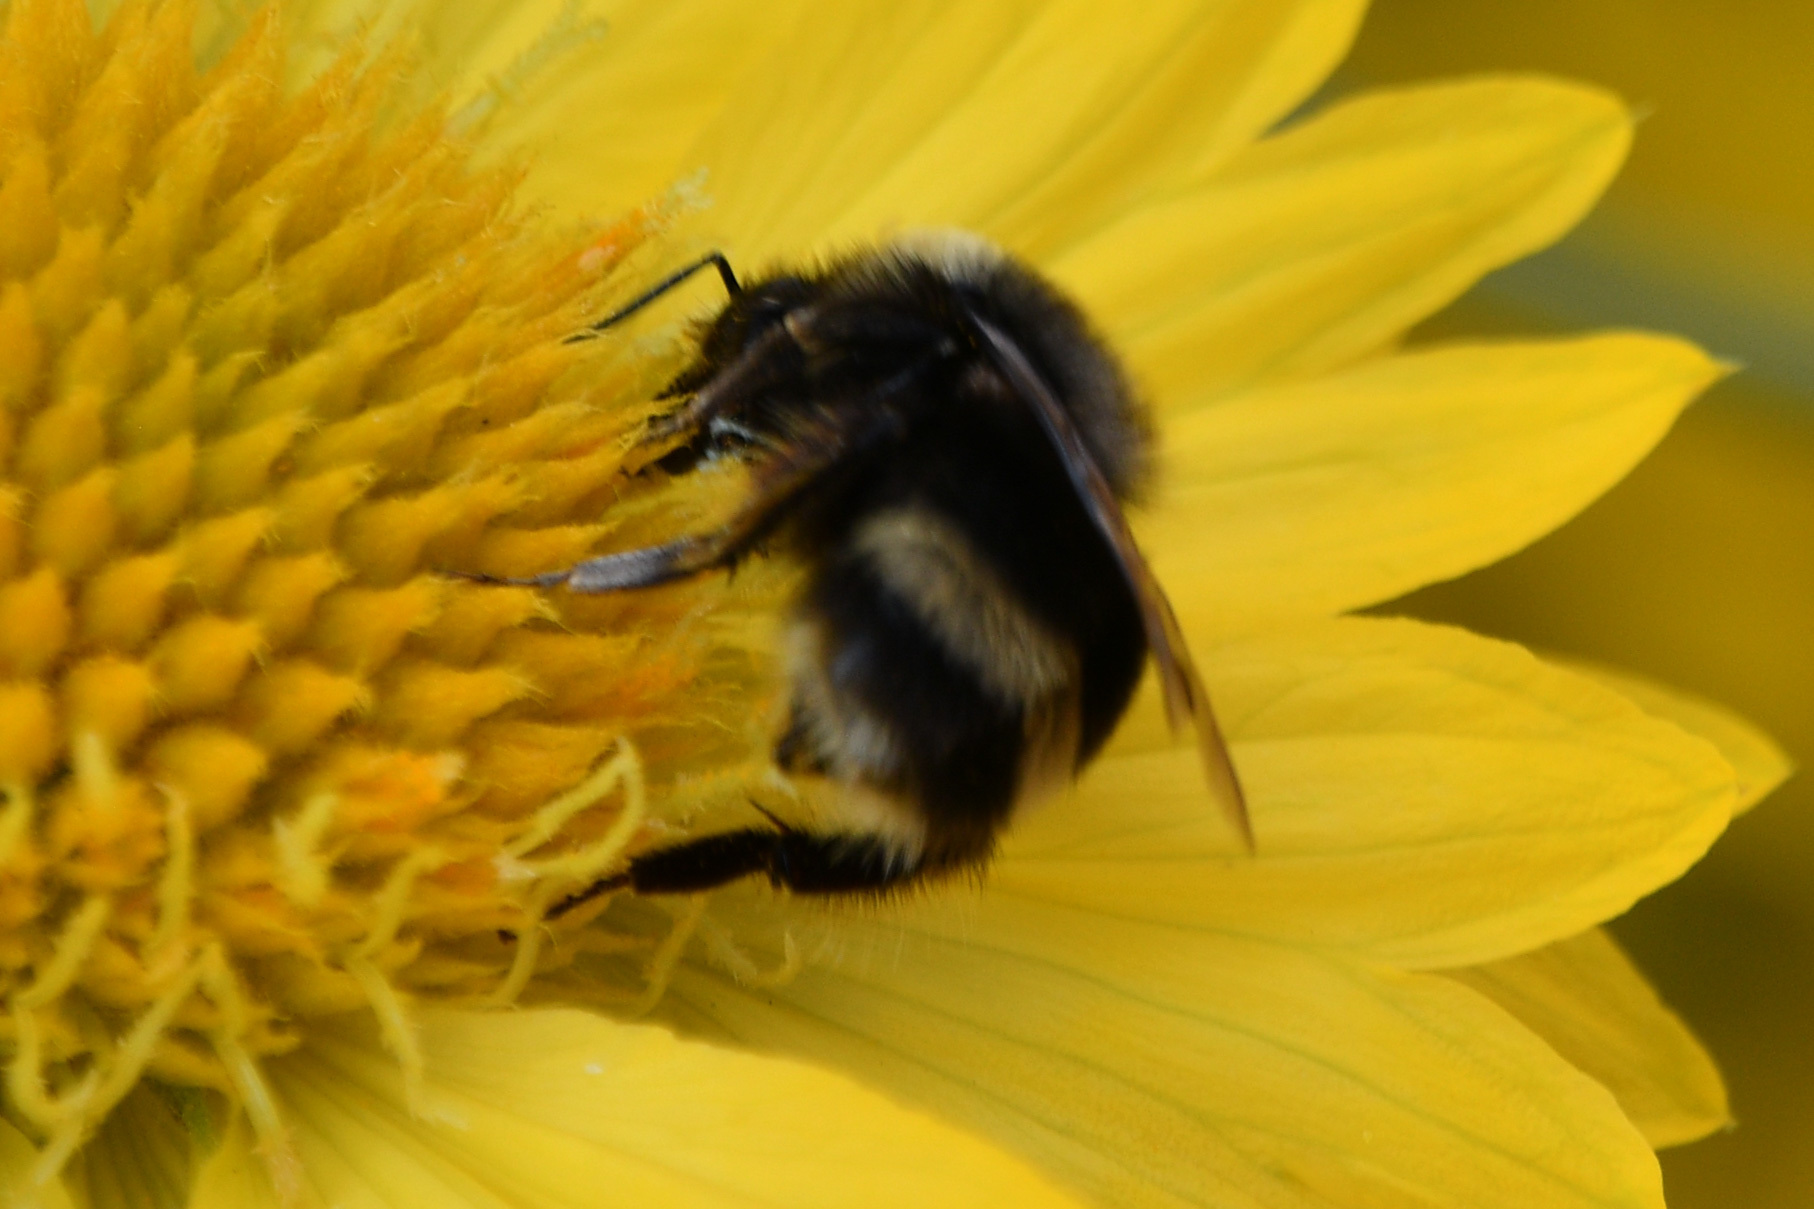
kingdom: Animalia
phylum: Arthropoda
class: Insecta
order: Hymenoptera
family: Apidae
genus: Bombus
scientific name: Bombus mckayi
